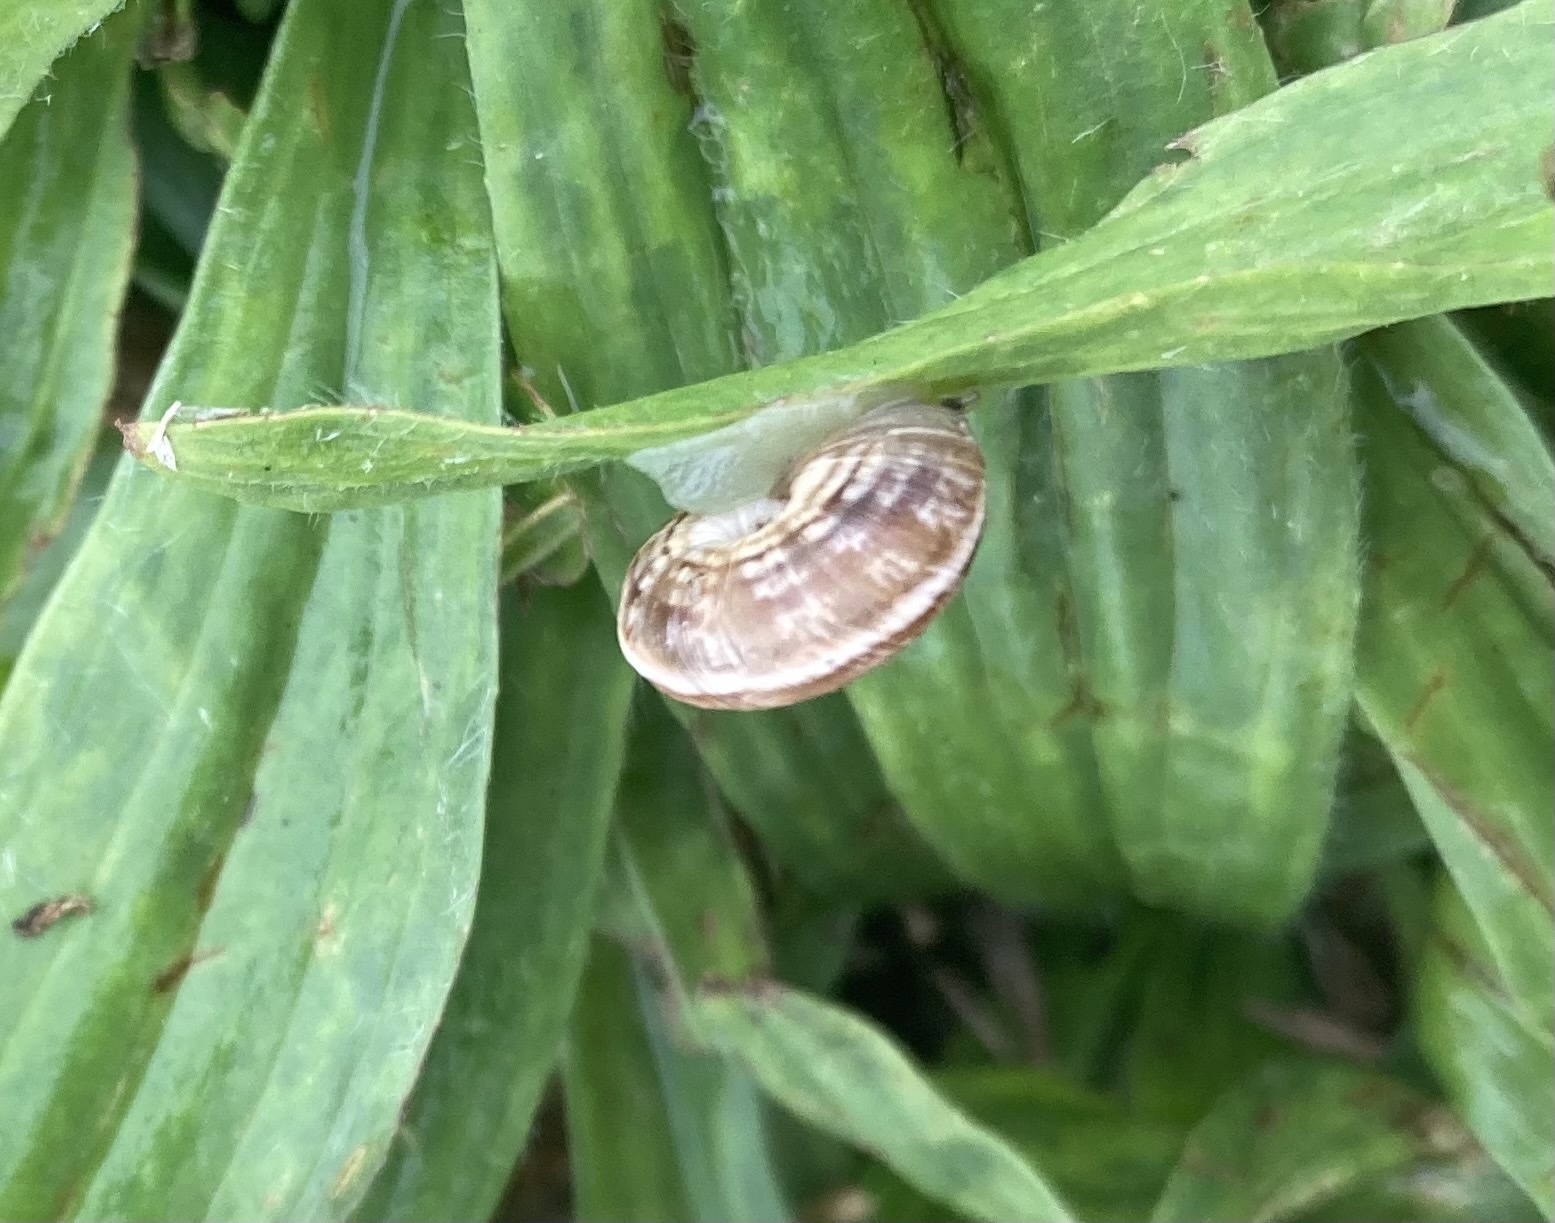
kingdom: Animalia
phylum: Mollusca
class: Gastropoda
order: Stylommatophora
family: Geomitridae
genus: Cernuella
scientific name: Cernuella virgata
